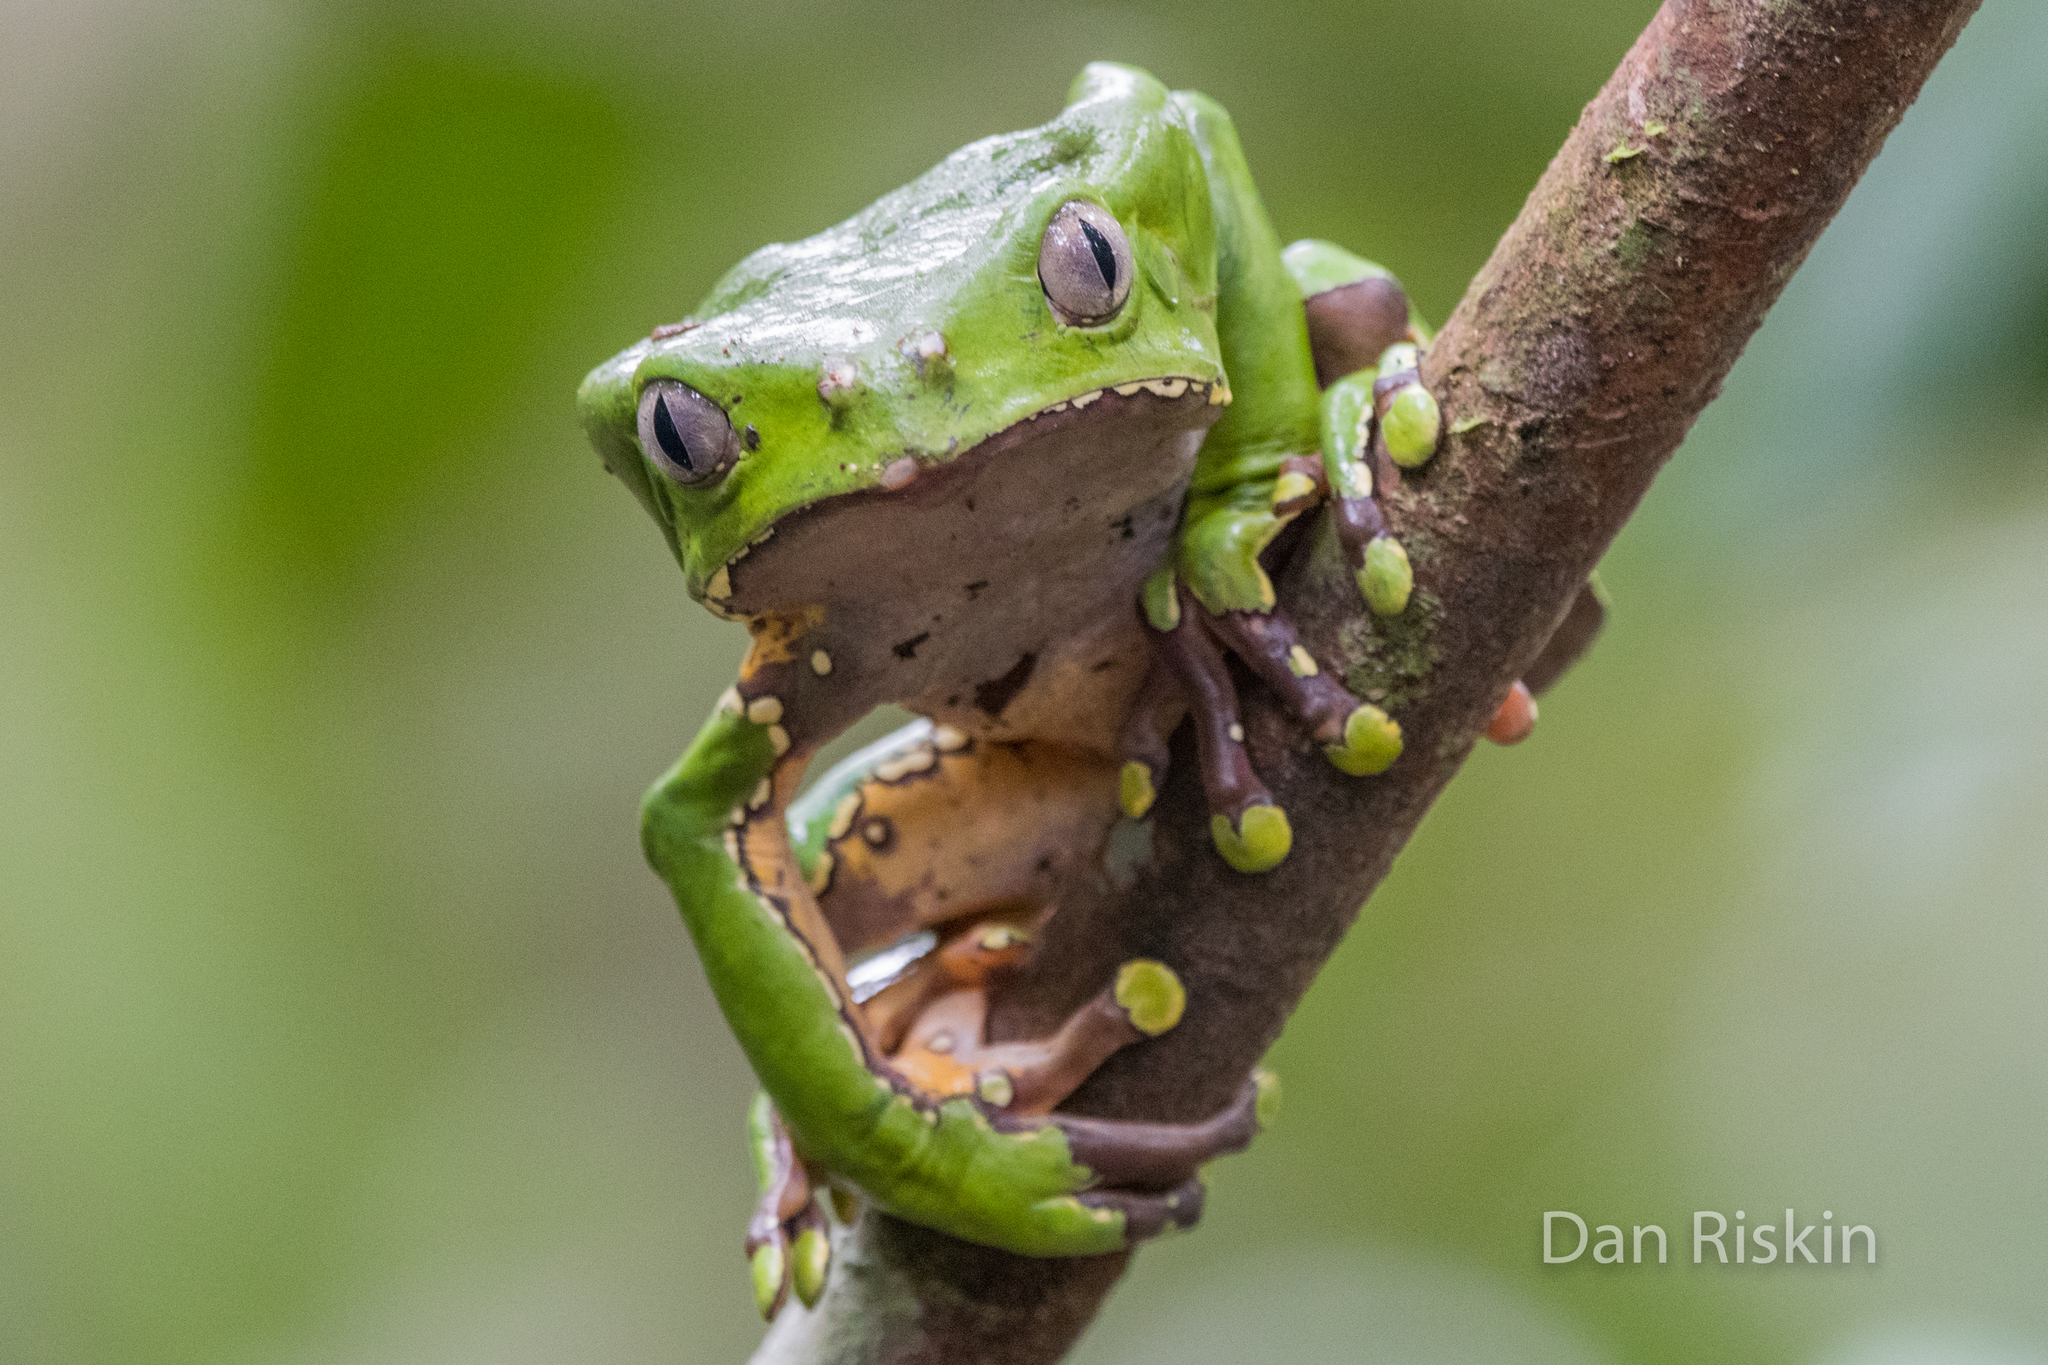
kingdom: Animalia
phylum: Chordata
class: Amphibia
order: Anura
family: Phyllomedusidae
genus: Phyllomedusa
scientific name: Phyllomedusa bicolor
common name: Giant monkey frog
